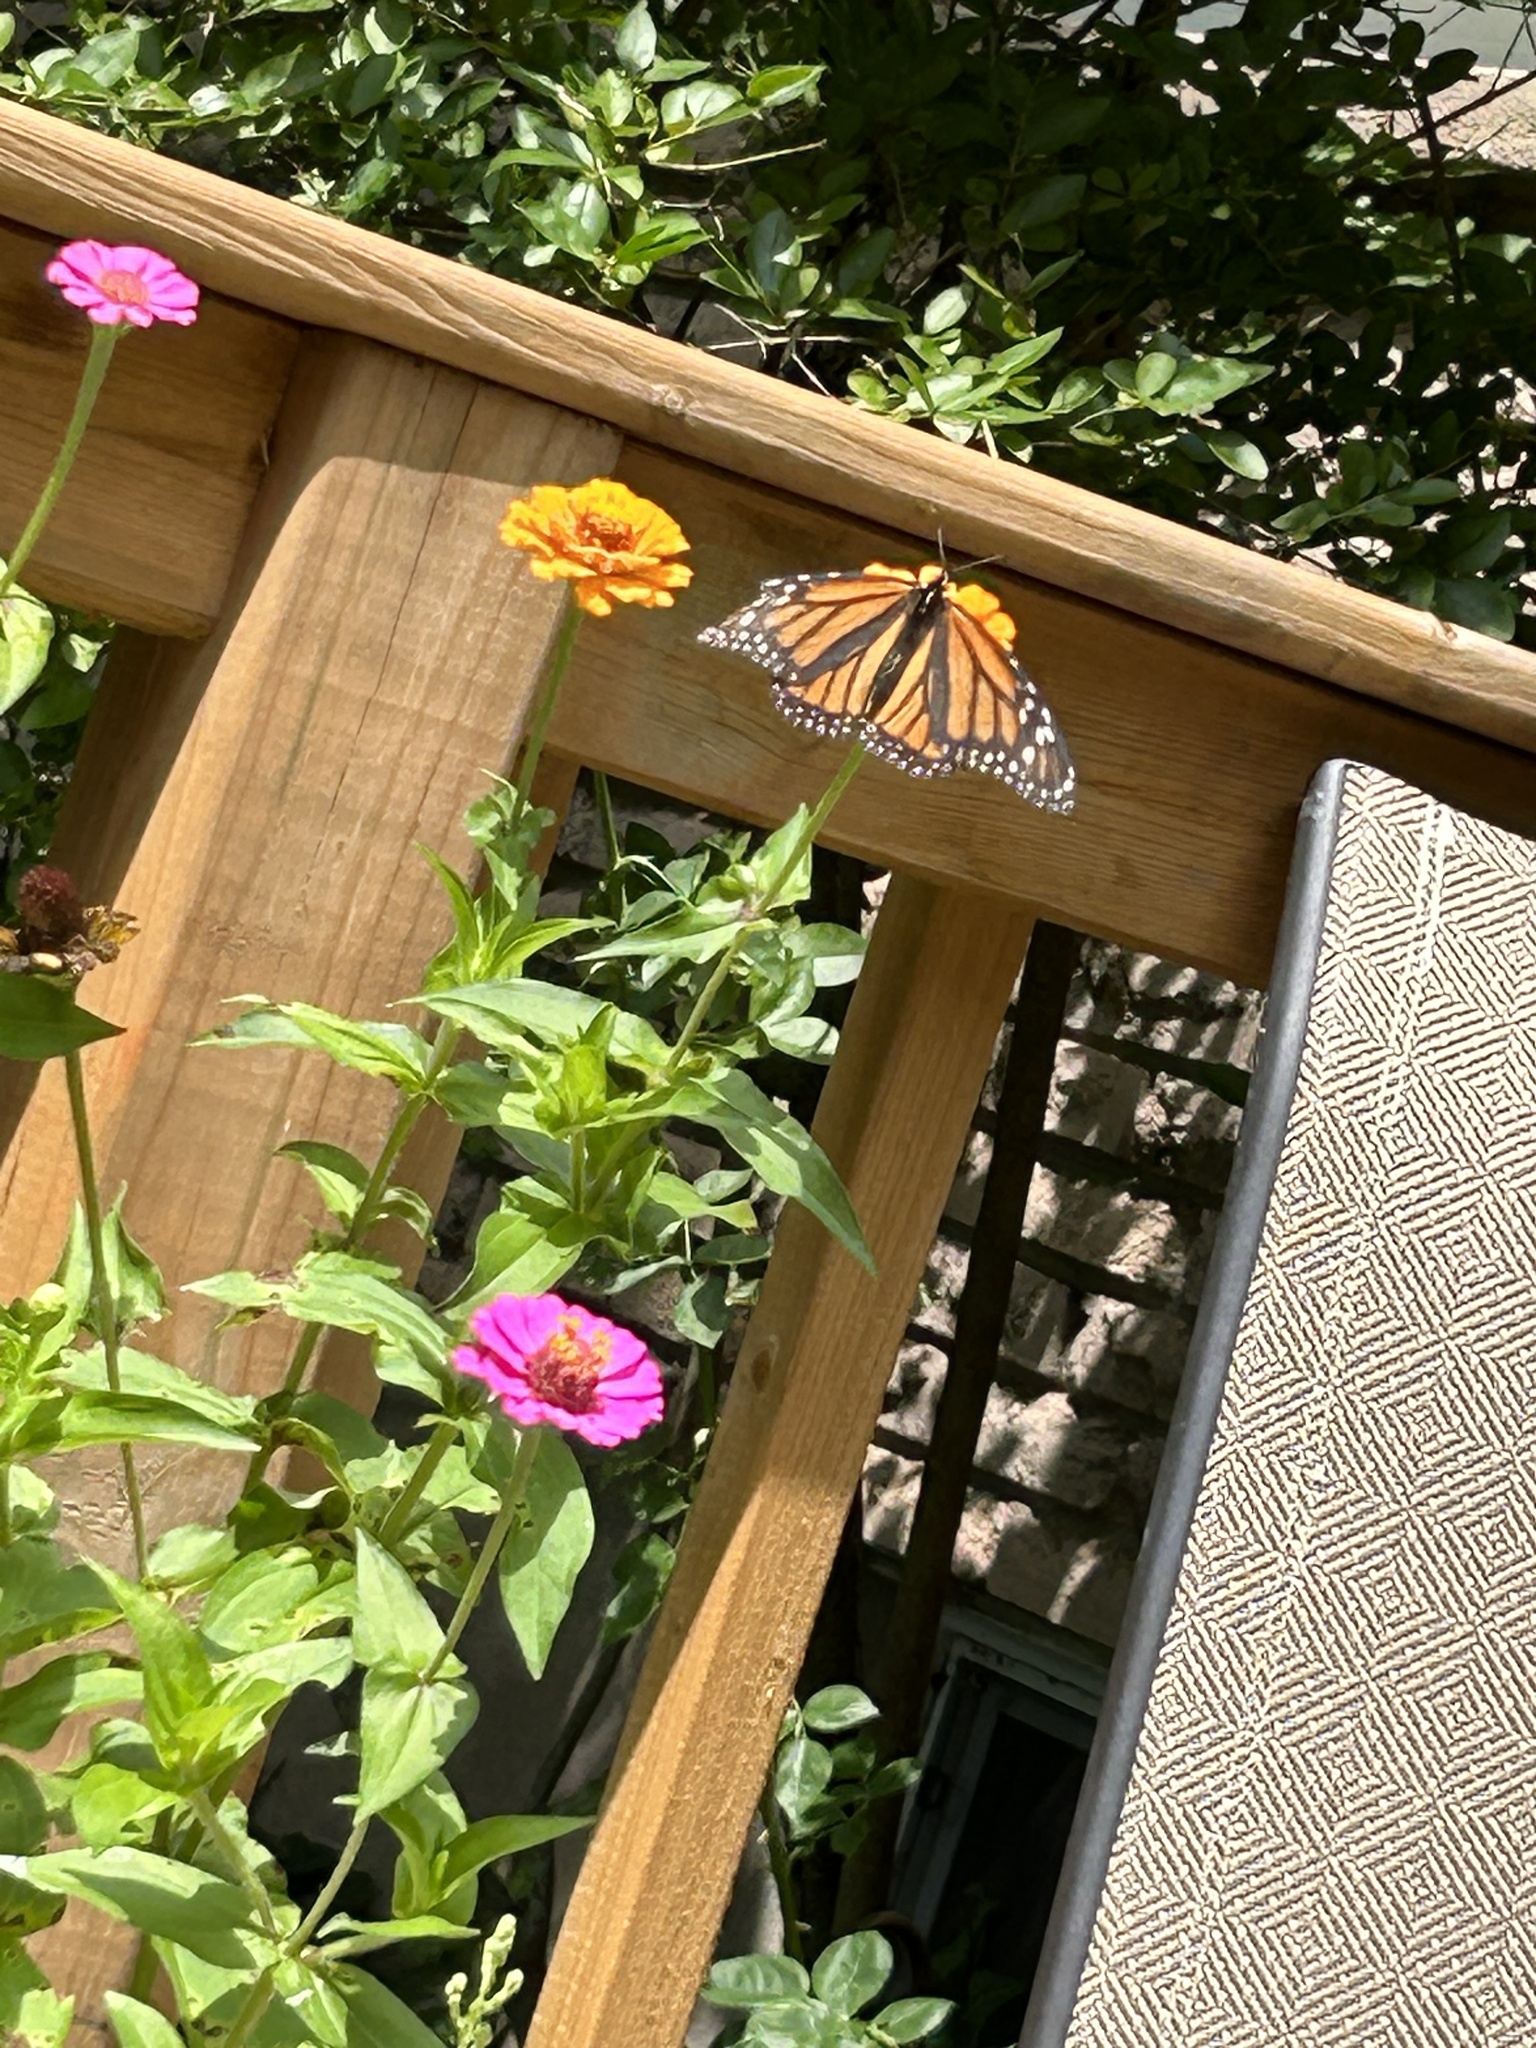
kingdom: Animalia
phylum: Arthropoda
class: Insecta
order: Lepidoptera
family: Nymphalidae
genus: Danaus
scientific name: Danaus plexippus
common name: Monarch
